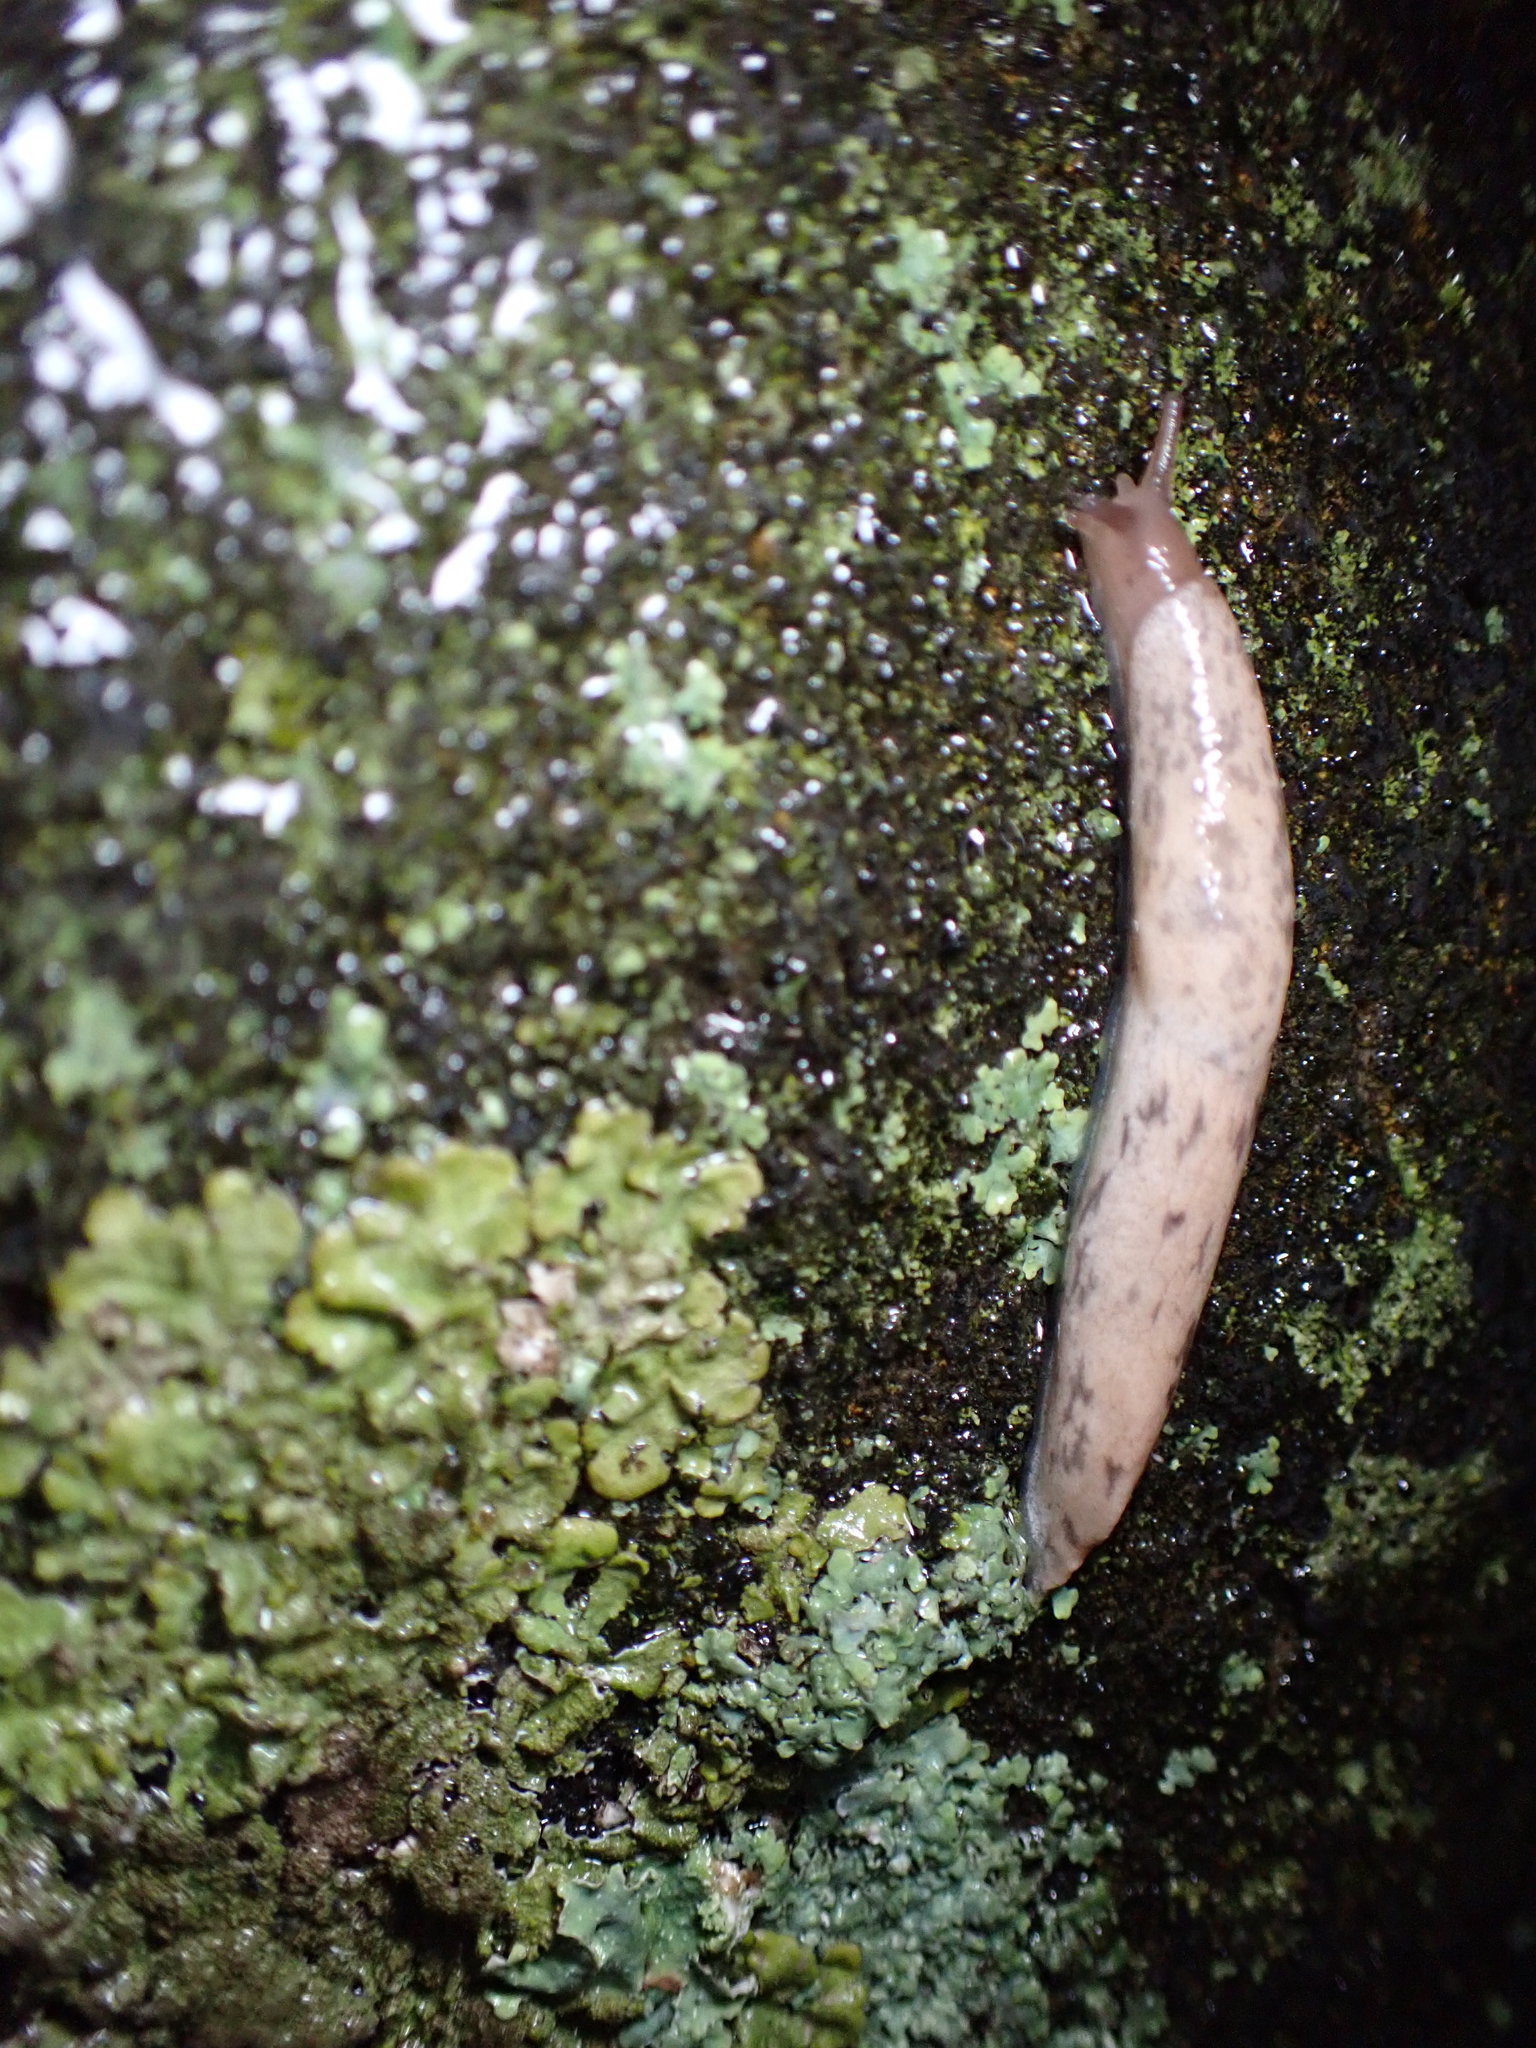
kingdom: Animalia
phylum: Mollusca
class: Gastropoda
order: Stylommatophora
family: Agriolimacidae
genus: Deroceras
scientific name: Deroceras reticulatum
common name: Gray field slug
